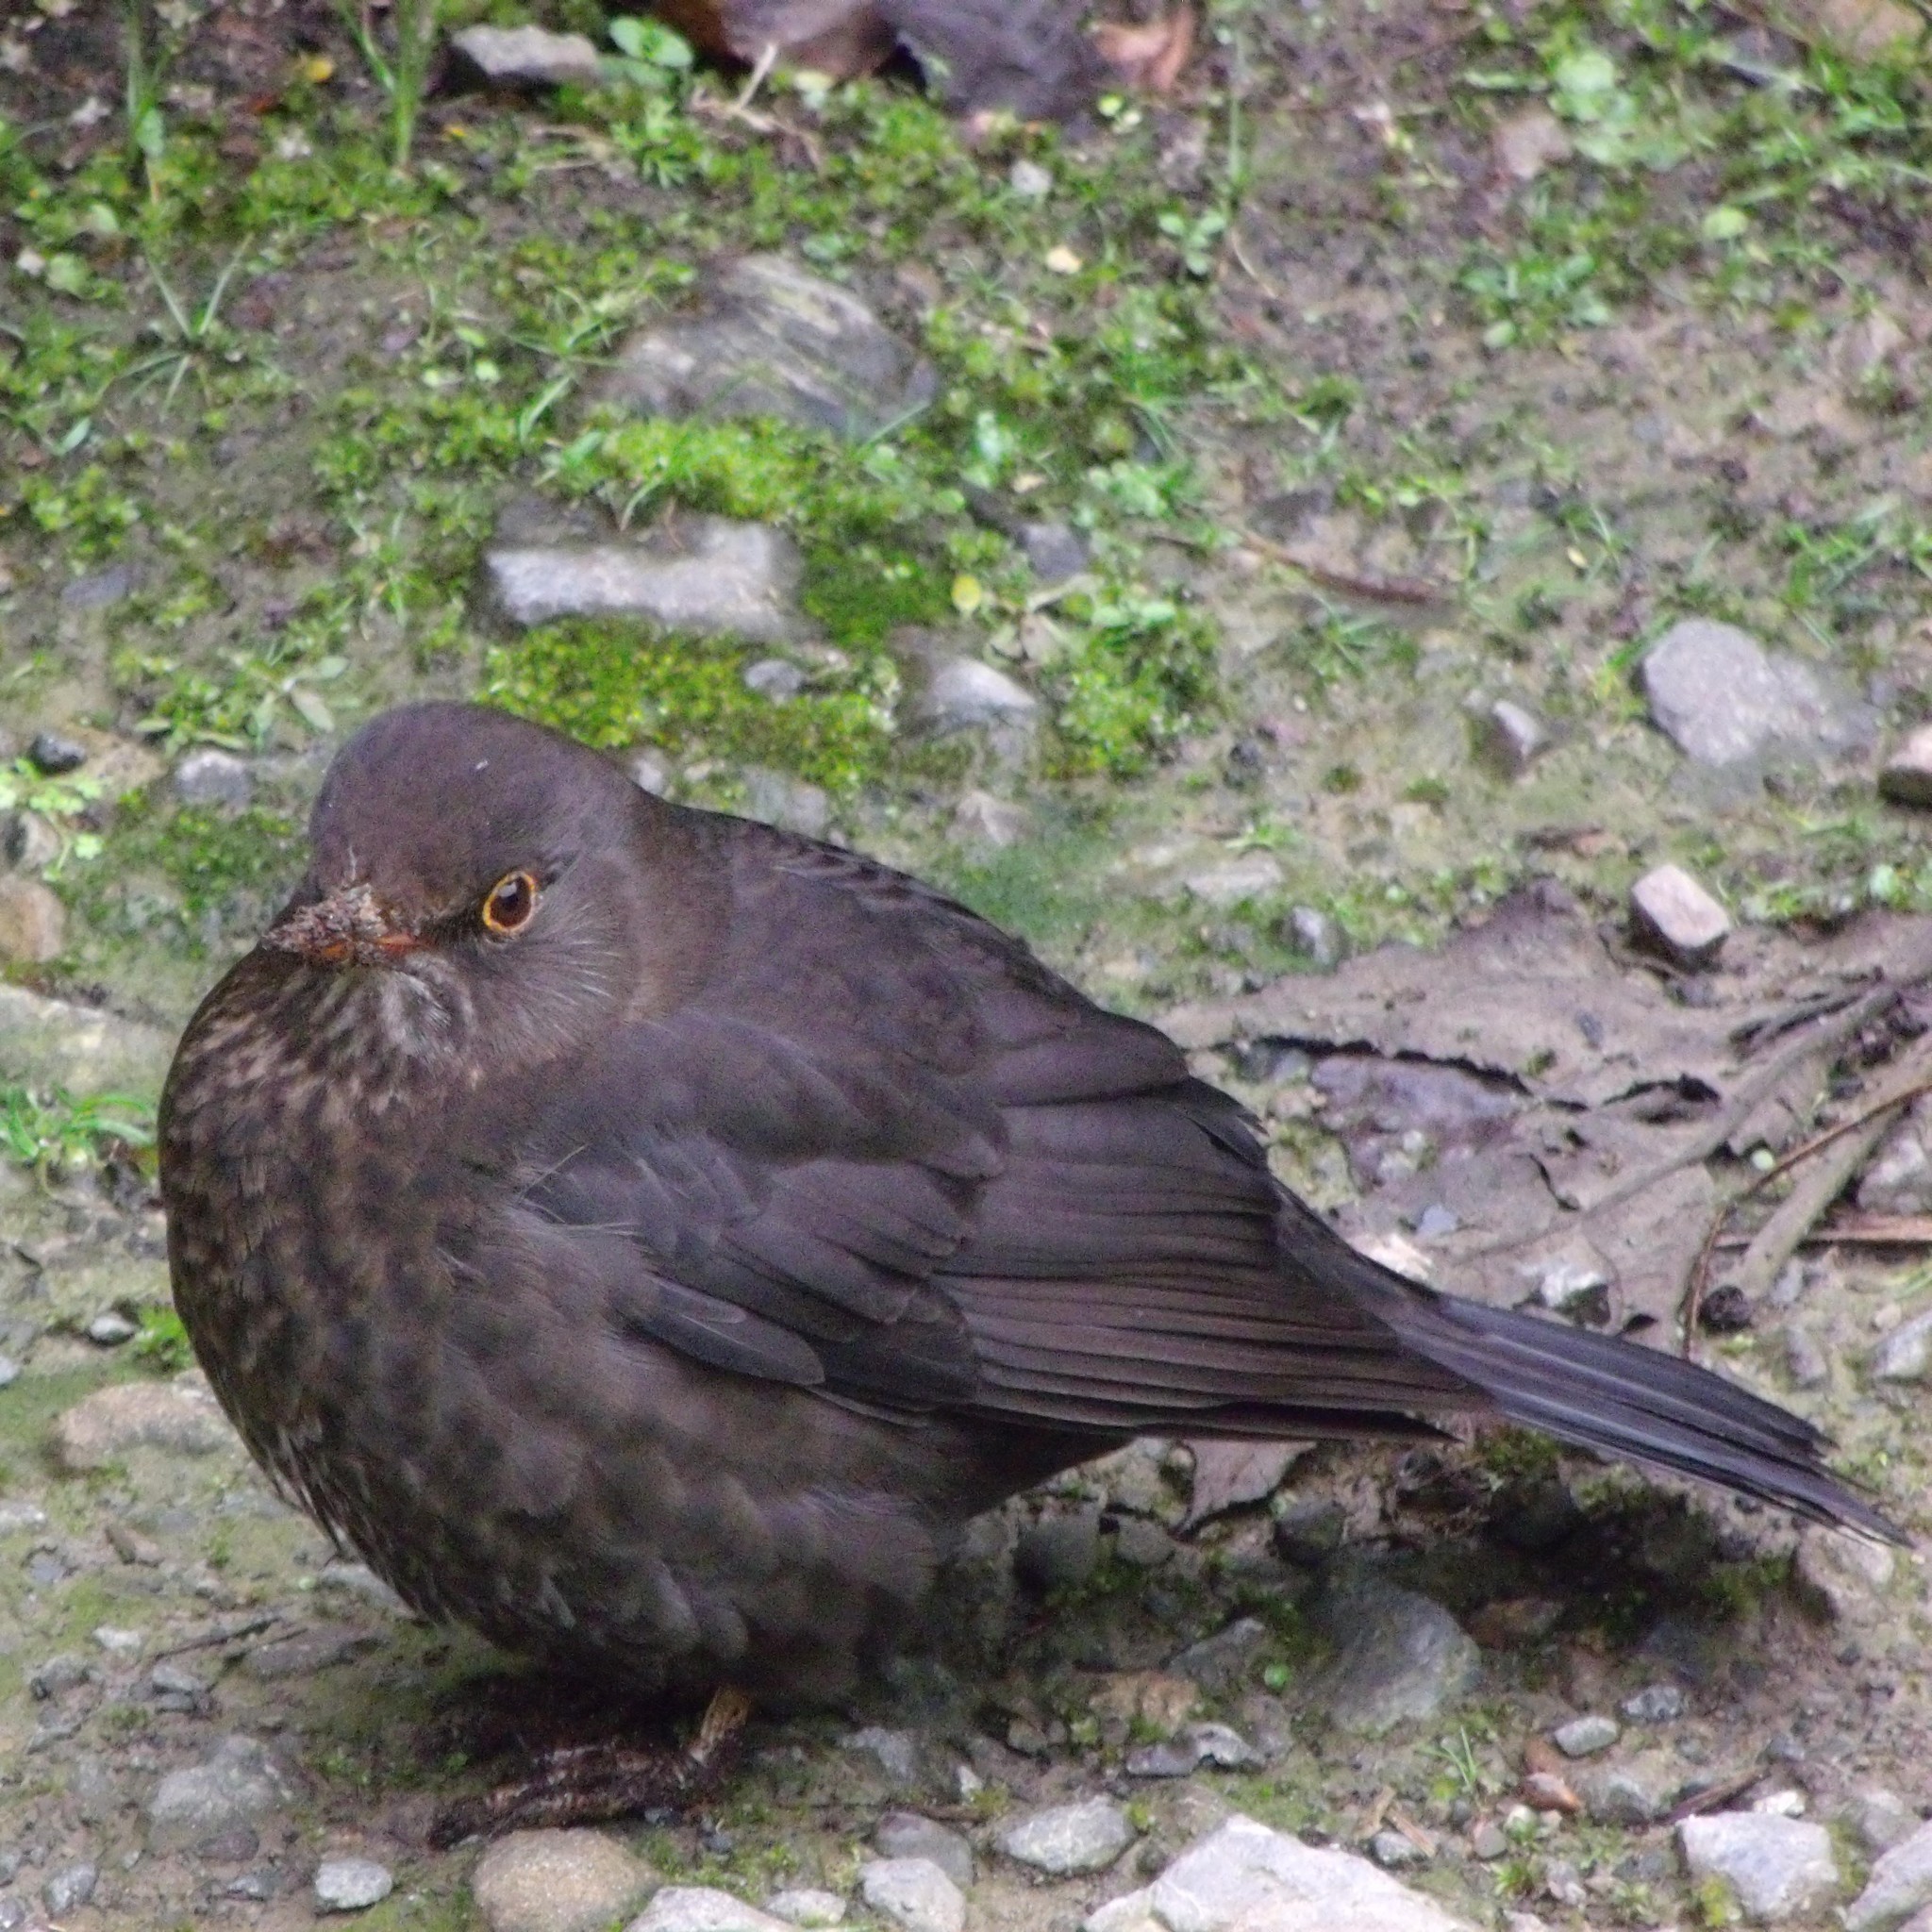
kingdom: Animalia
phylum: Chordata
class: Aves
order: Passeriformes
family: Turdidae
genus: Turdus
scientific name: Turdus merula
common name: Common blackbird
